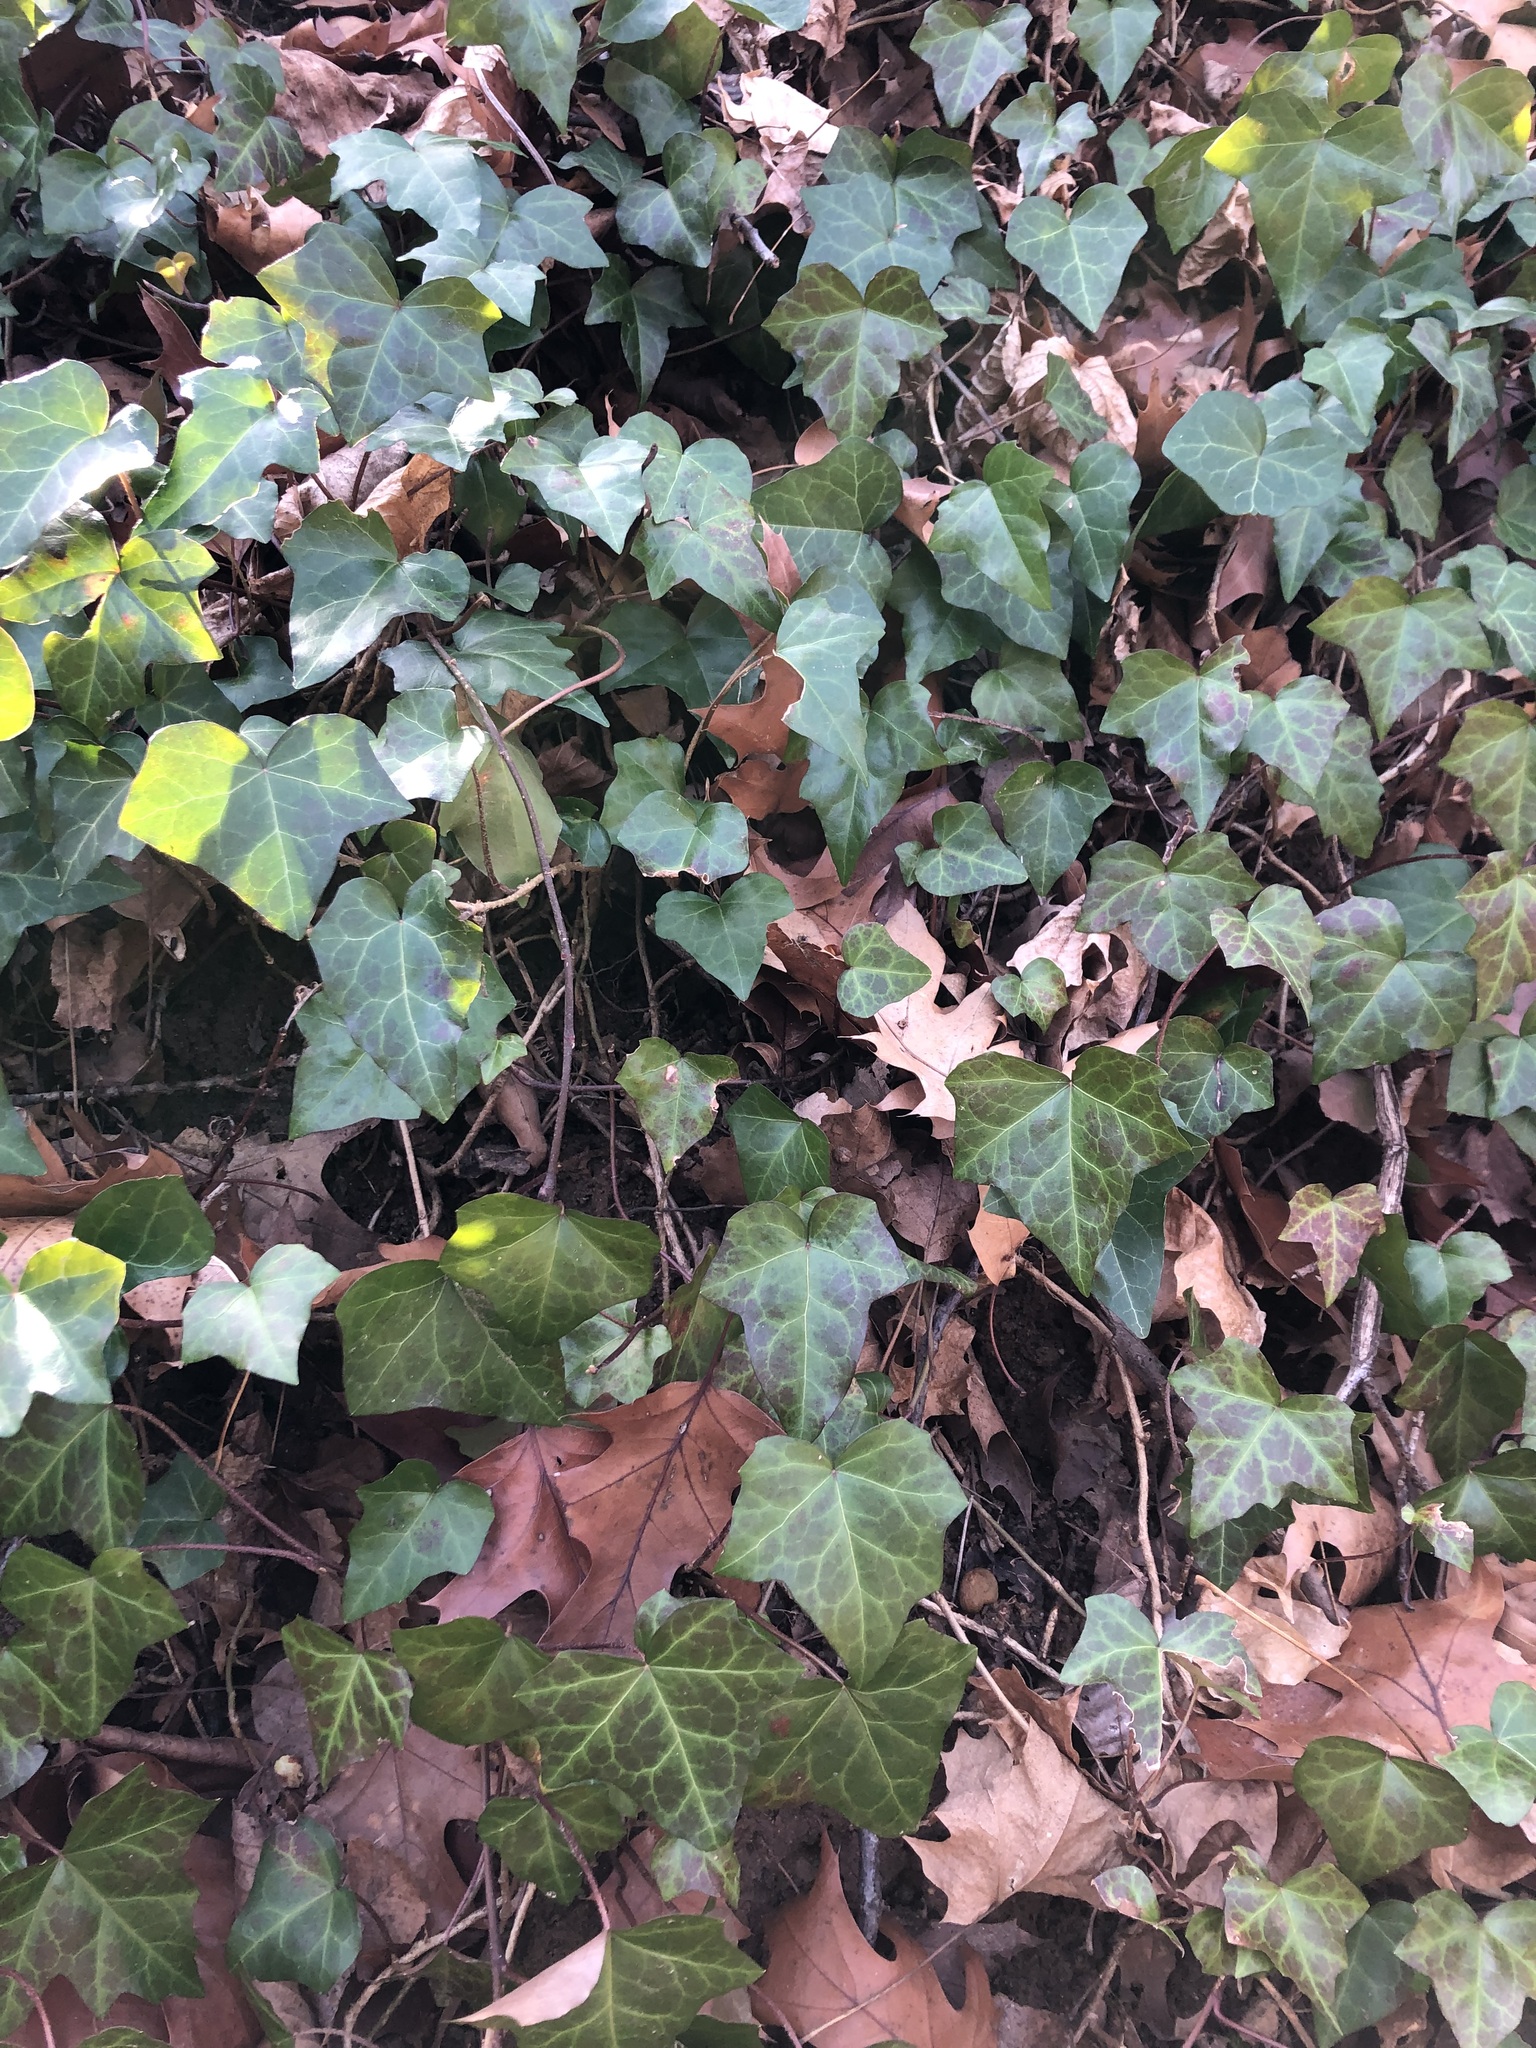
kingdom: Plantae
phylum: Tracheophyta
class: Magnoliopsida
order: Apiales
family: Araliaceae
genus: Hedera
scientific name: Hedera helix
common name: Ivy
